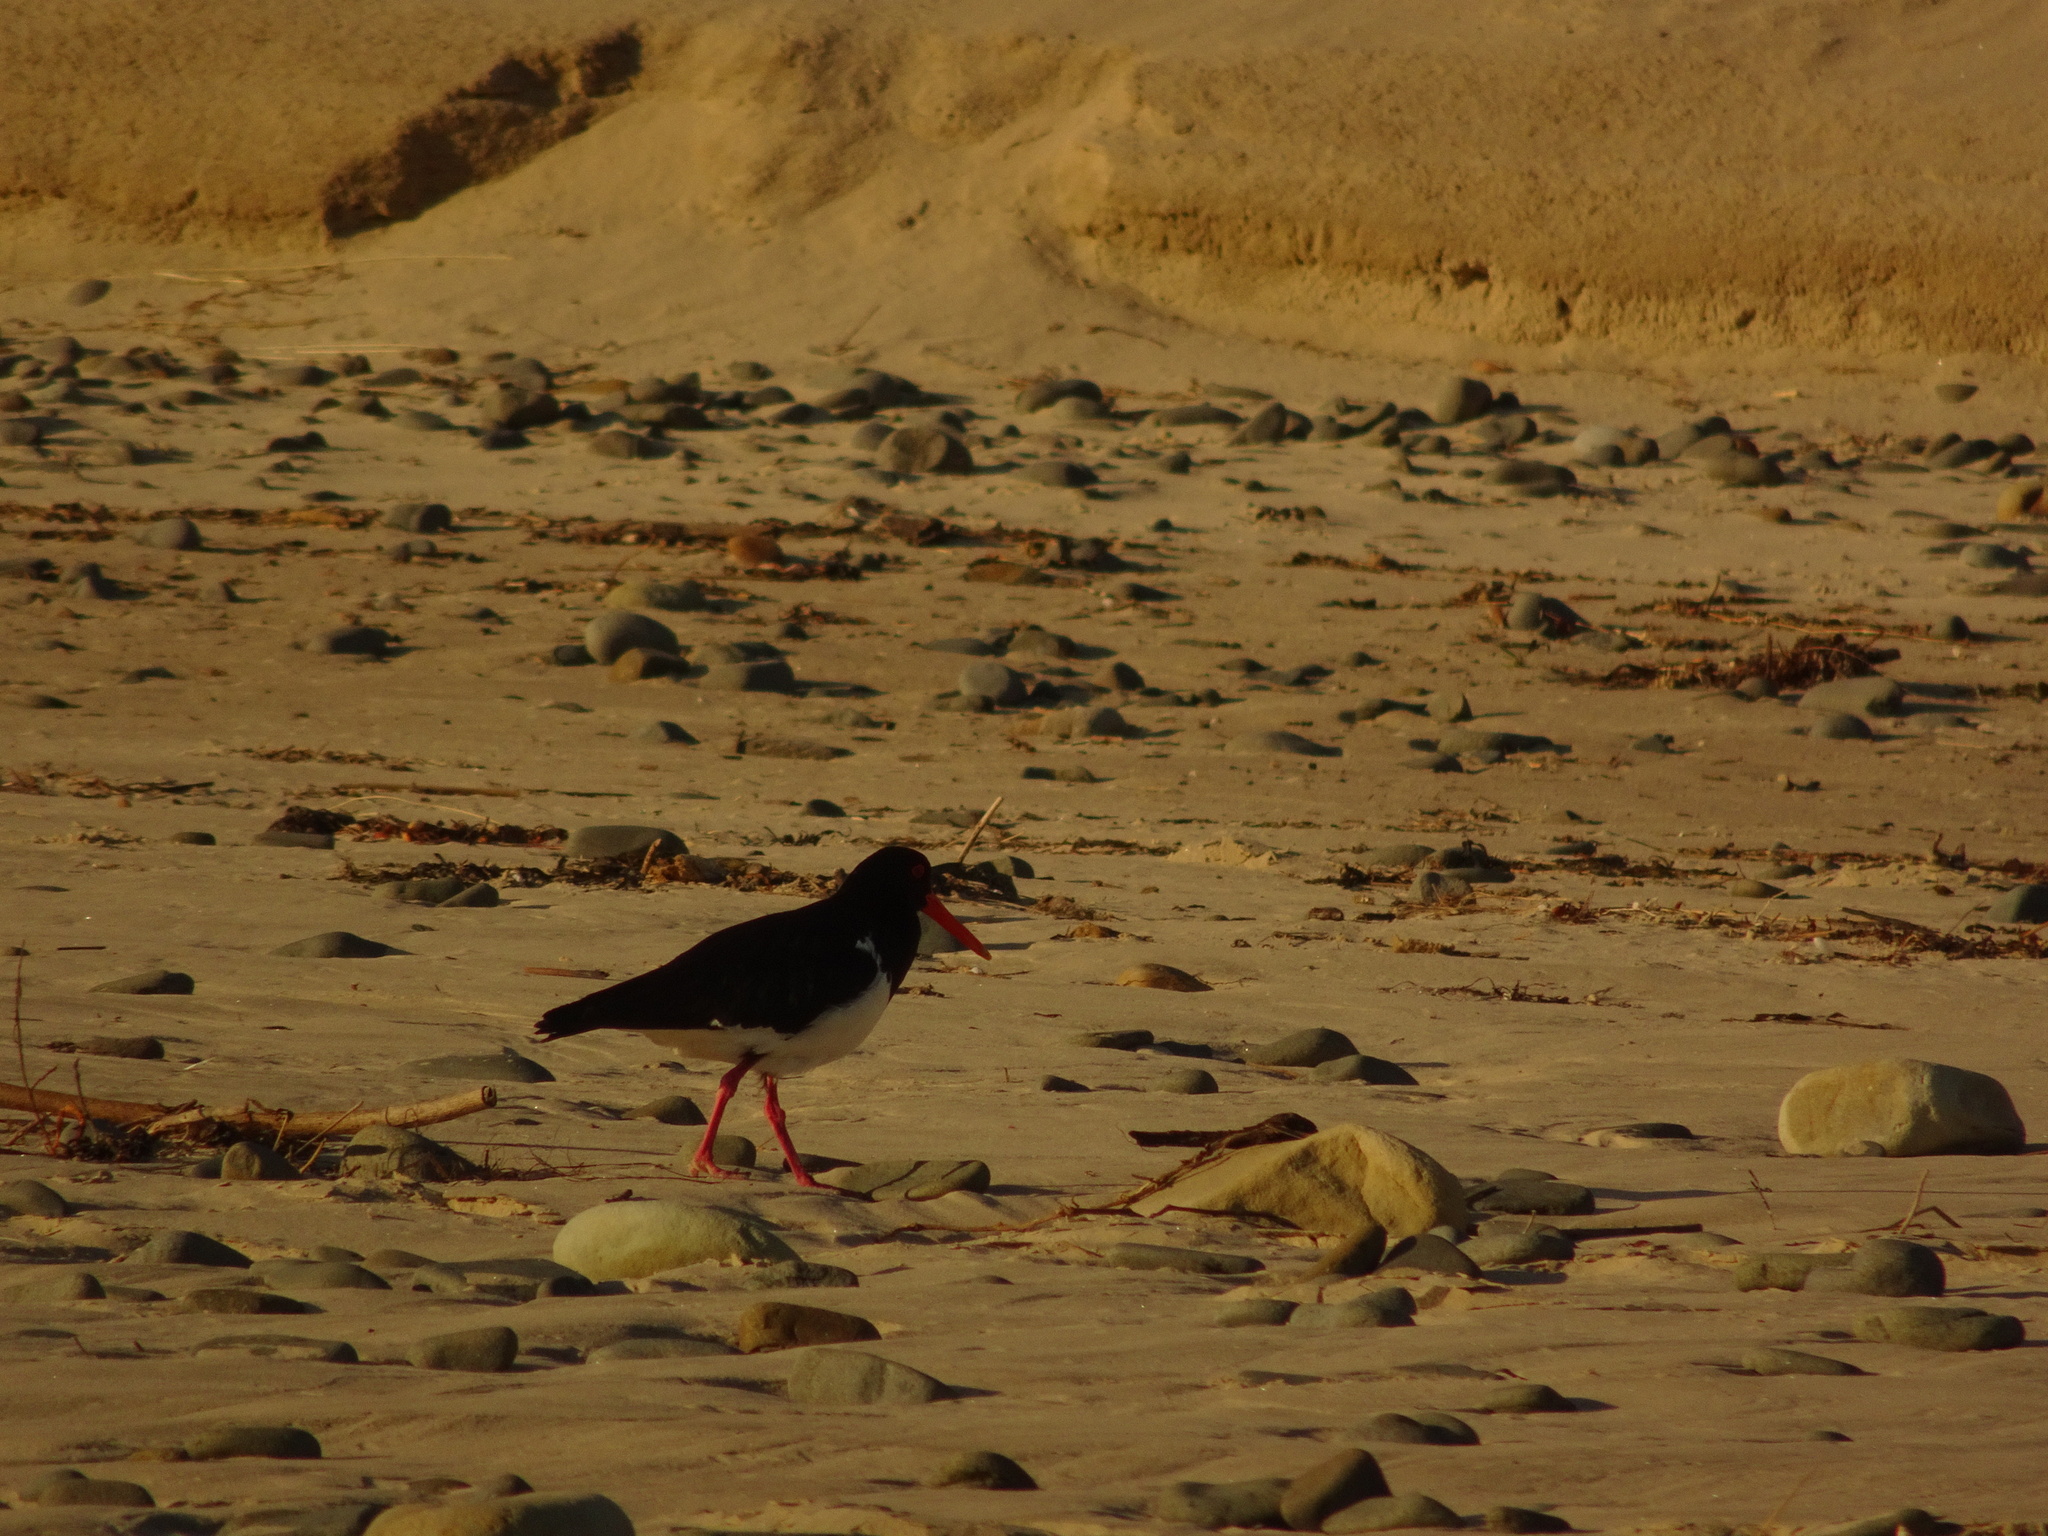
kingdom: Animalia
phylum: Chordata
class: Aves
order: Charadriiformes
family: Haematopodidae
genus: Haematopus
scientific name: Haematopus longirostris
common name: Pied oystercatcher
